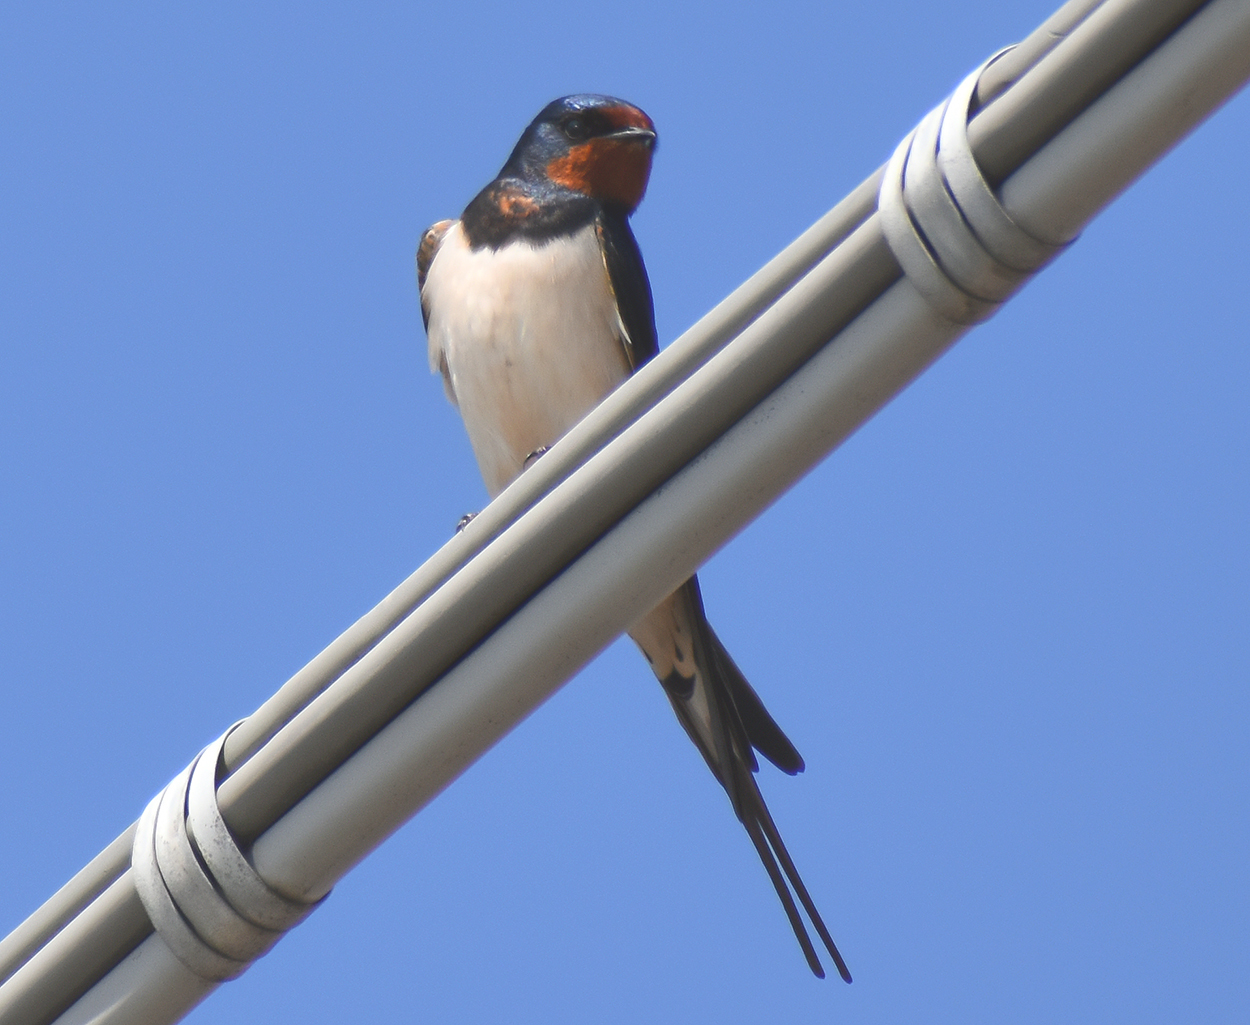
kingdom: Animalia
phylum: Chordata
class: Aves
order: Passeriformes
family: Hirundinidae
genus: Hirundo
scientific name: Hirundo rustica
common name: Barn swallow
